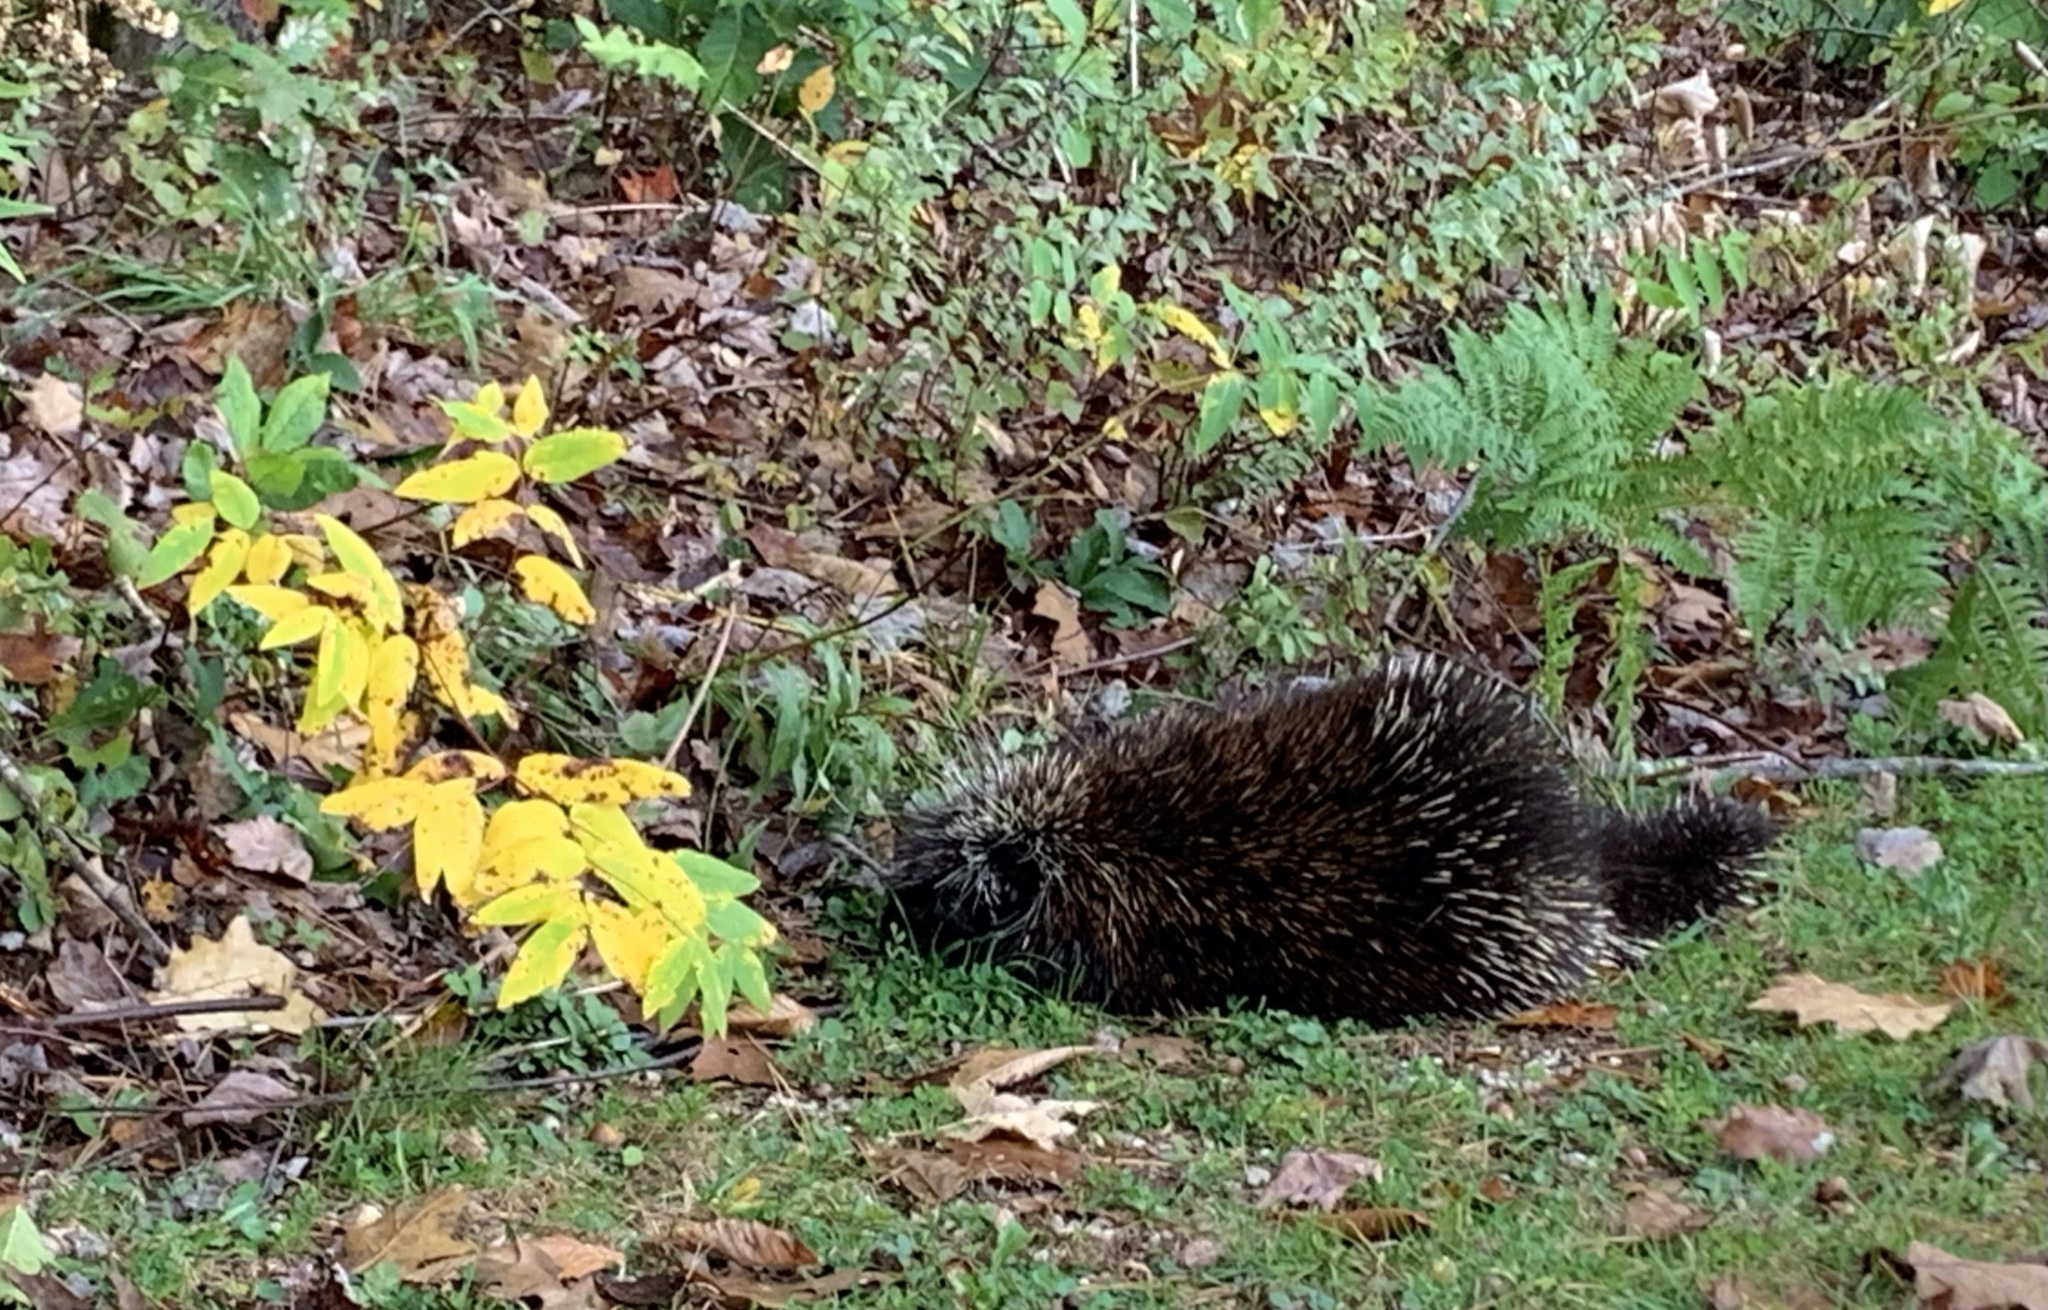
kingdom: Animalia
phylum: Chordata
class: Mammalia
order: Rodentia
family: Erethizontidae
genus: Erethizon
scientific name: Erethizon dorsatus
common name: North american porcupine
